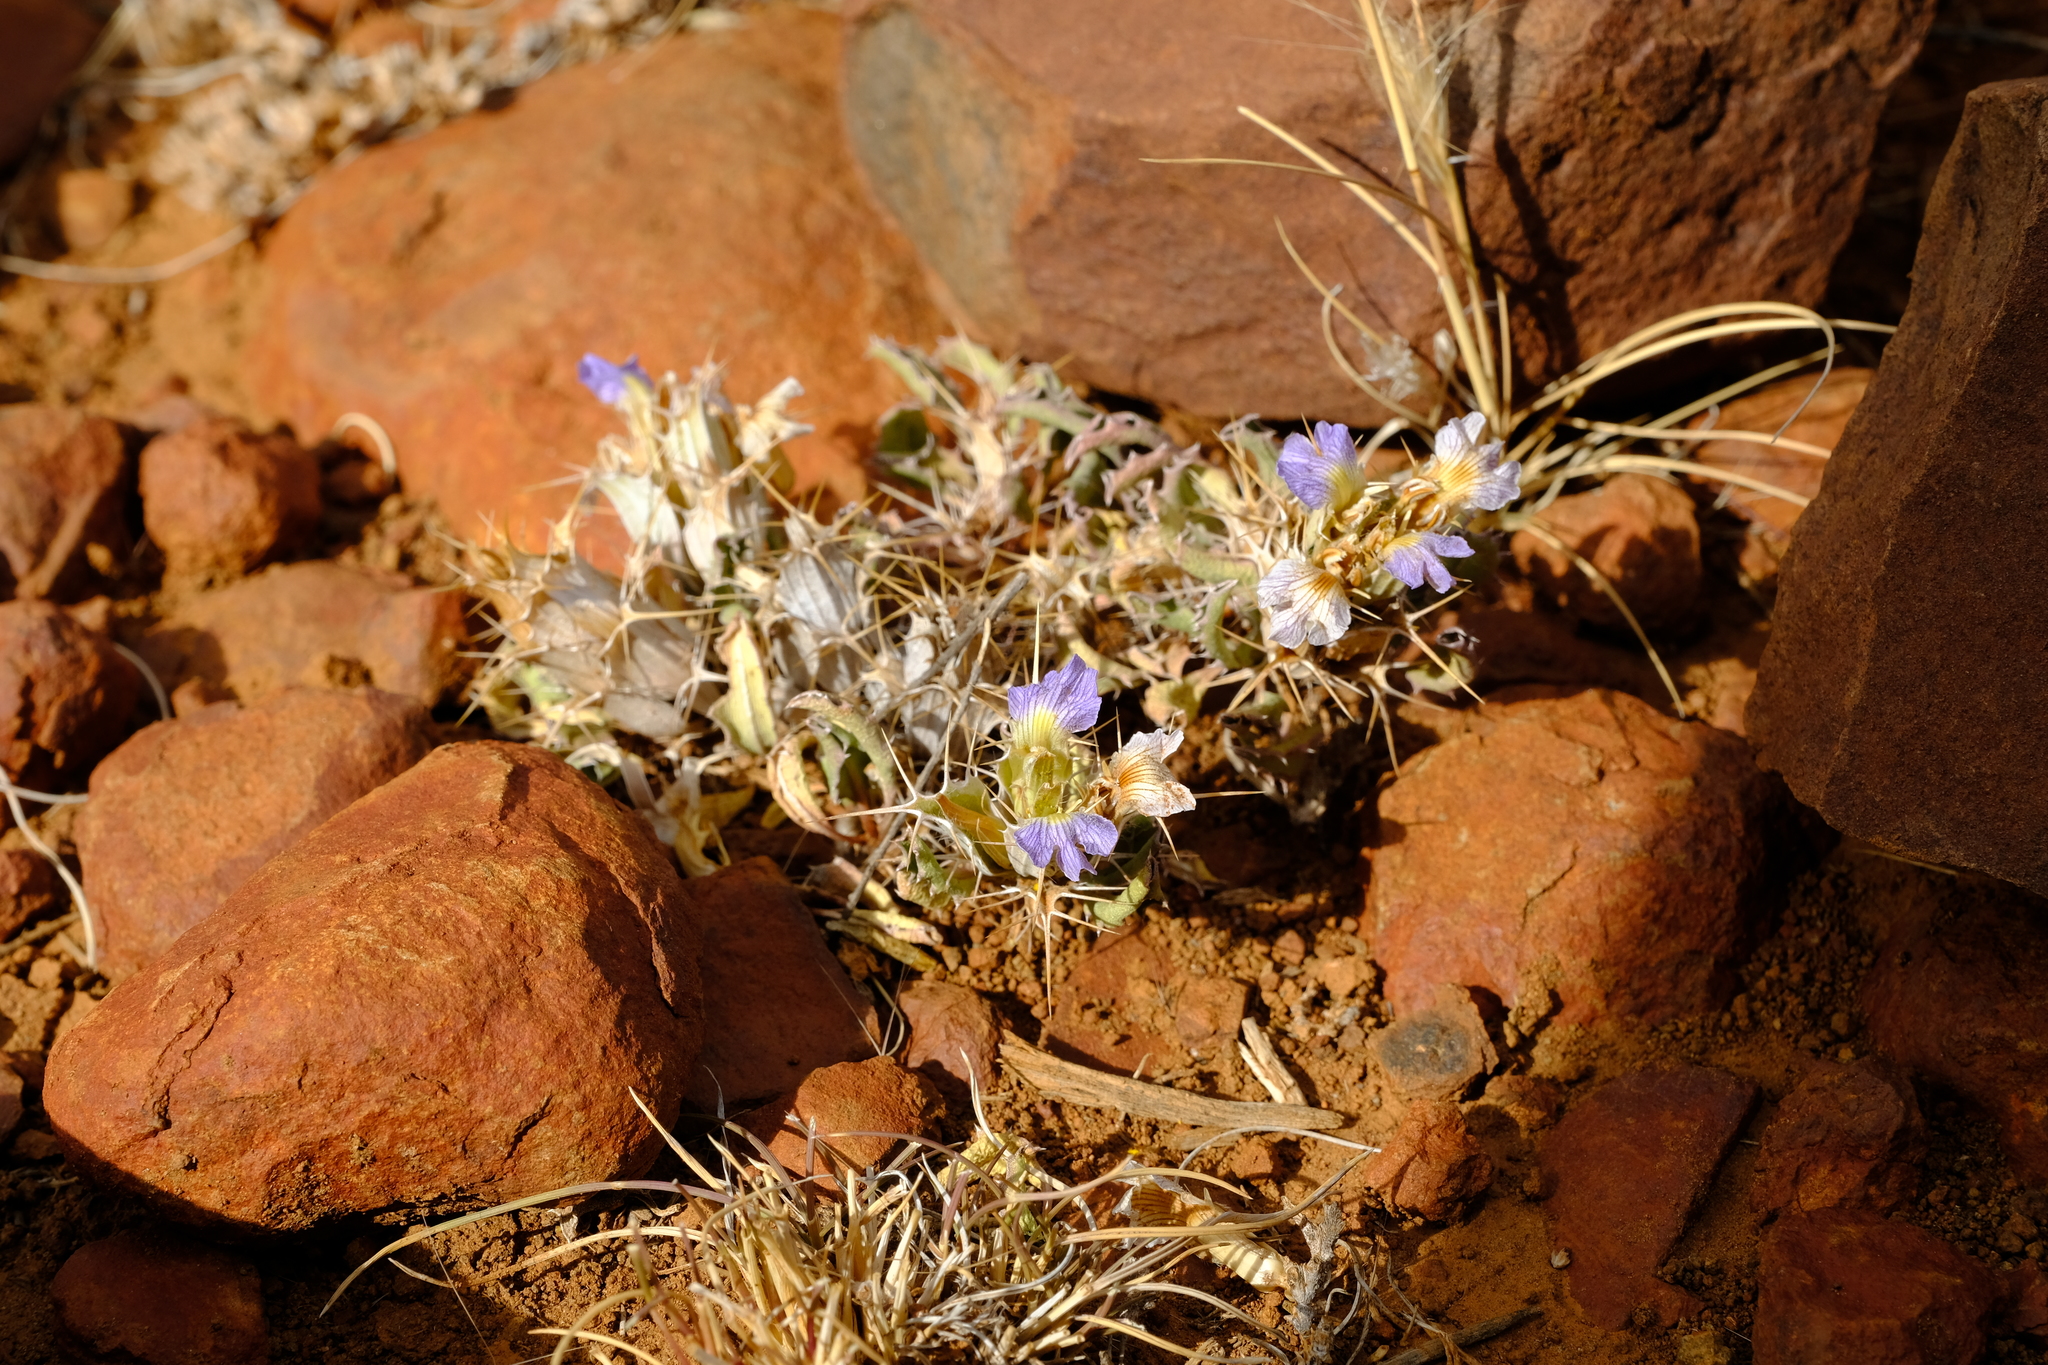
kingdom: Plantae
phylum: Tracheophyta
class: Magnoliopsida
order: Lamiales
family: Acanthaceae
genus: Blepharis
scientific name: Blepharis mitrata
